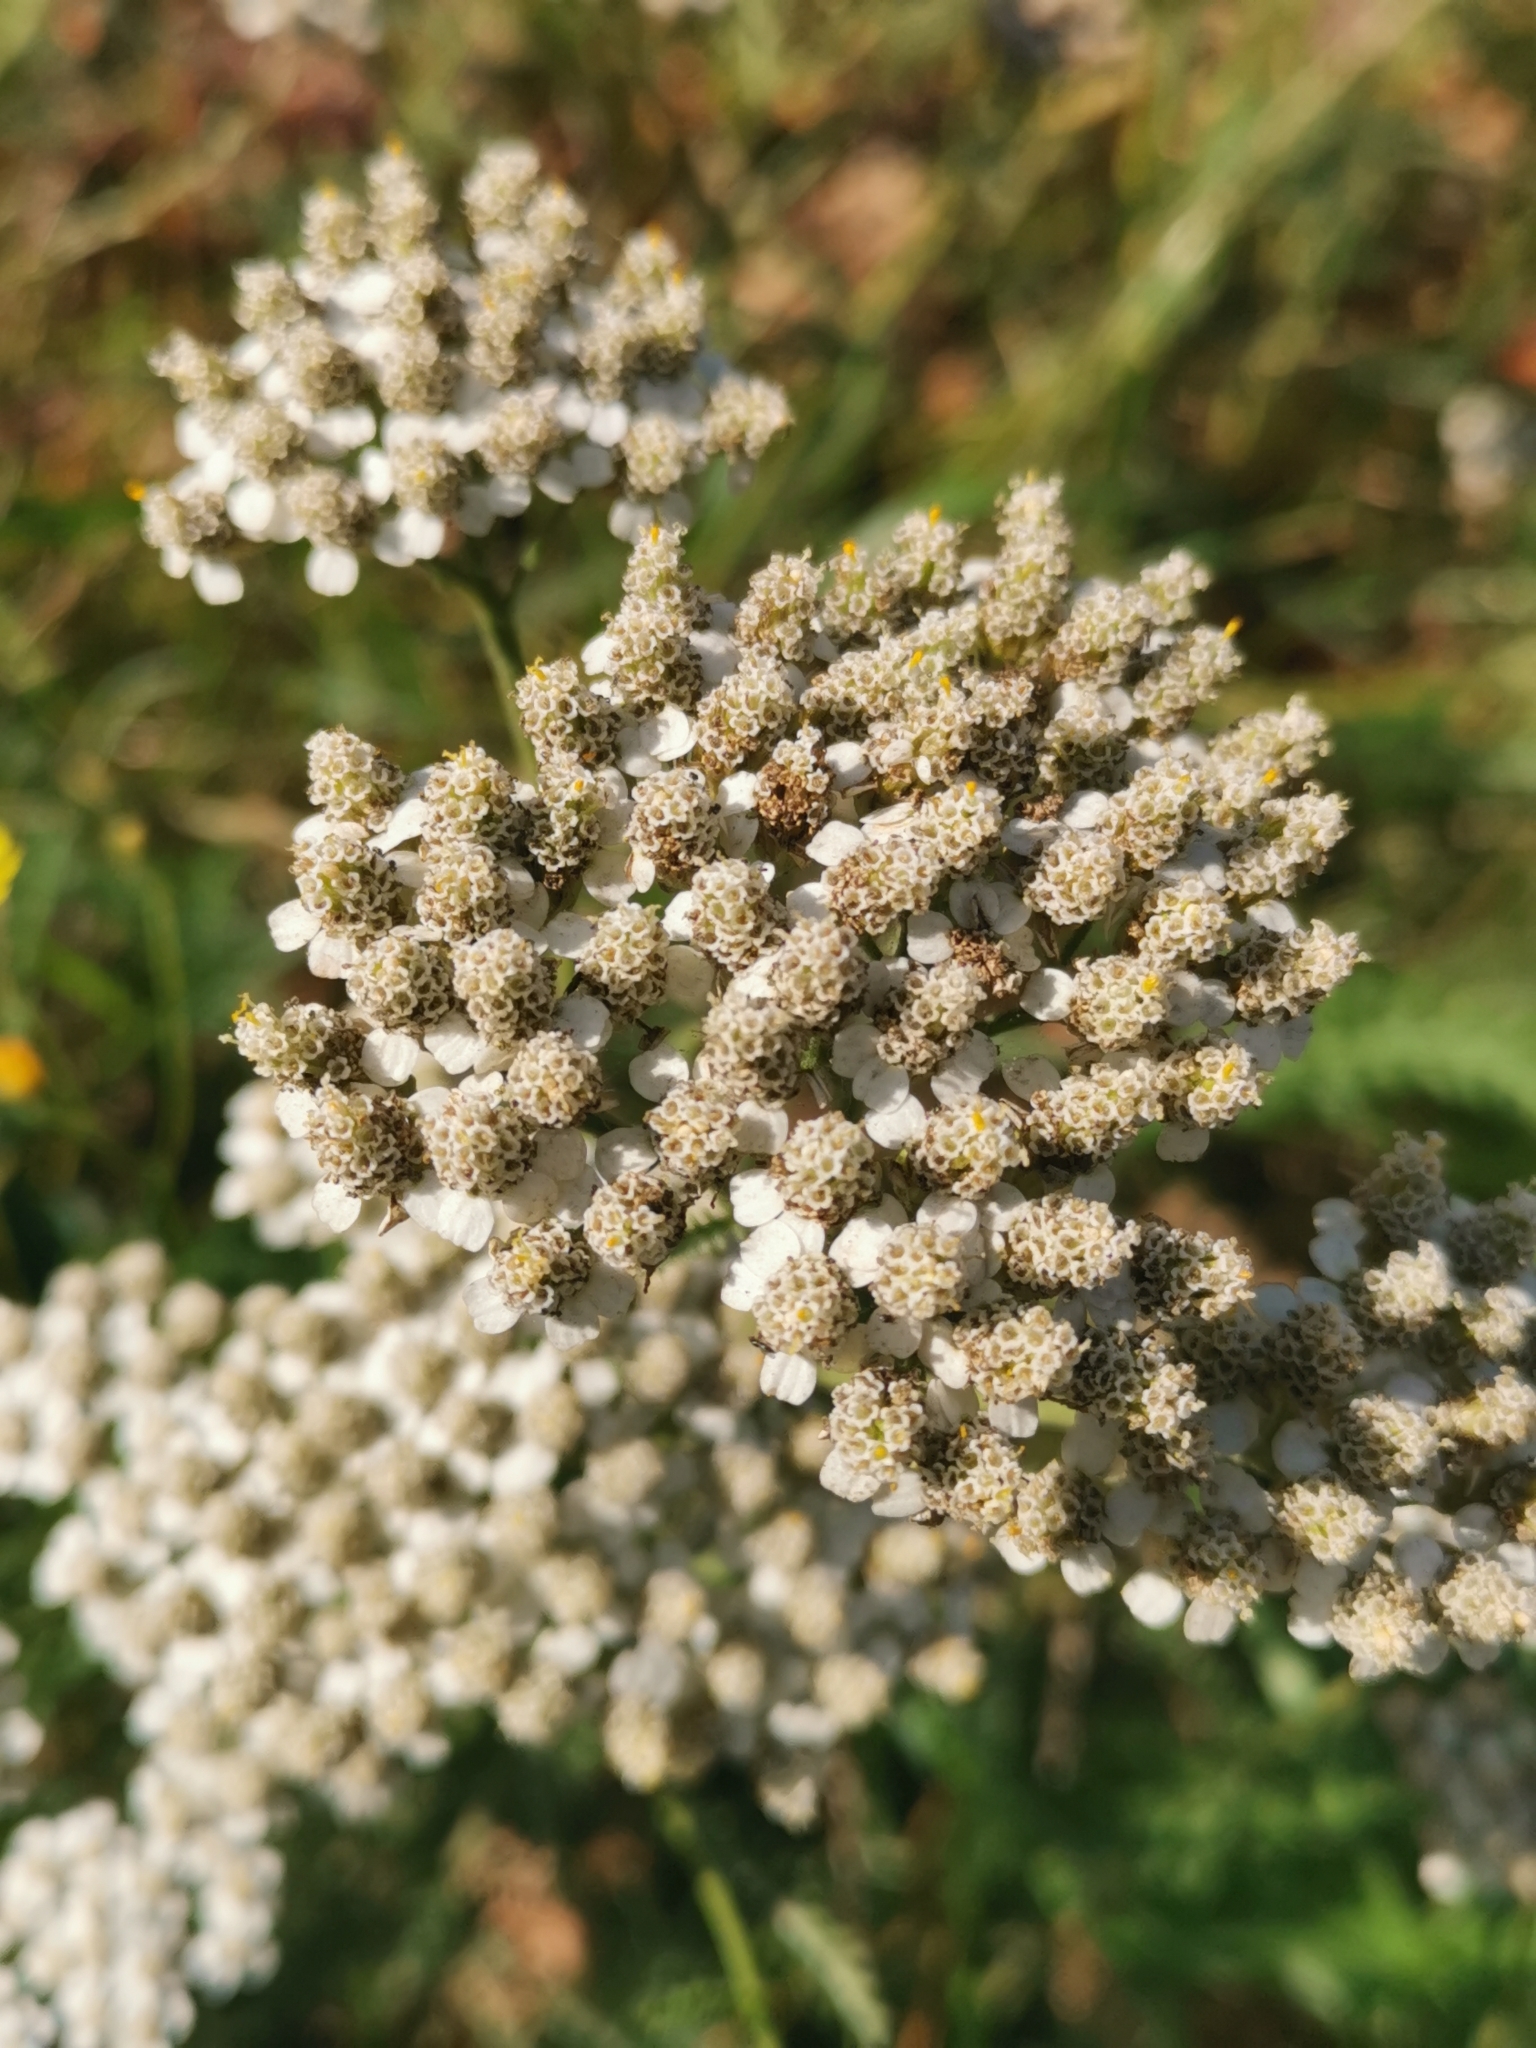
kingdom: Plantae
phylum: Tracheophyta
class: Magnoliopsida
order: Asterales
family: Asteraceae
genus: Achillea
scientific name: Achillea millefolium
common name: Yarrow
